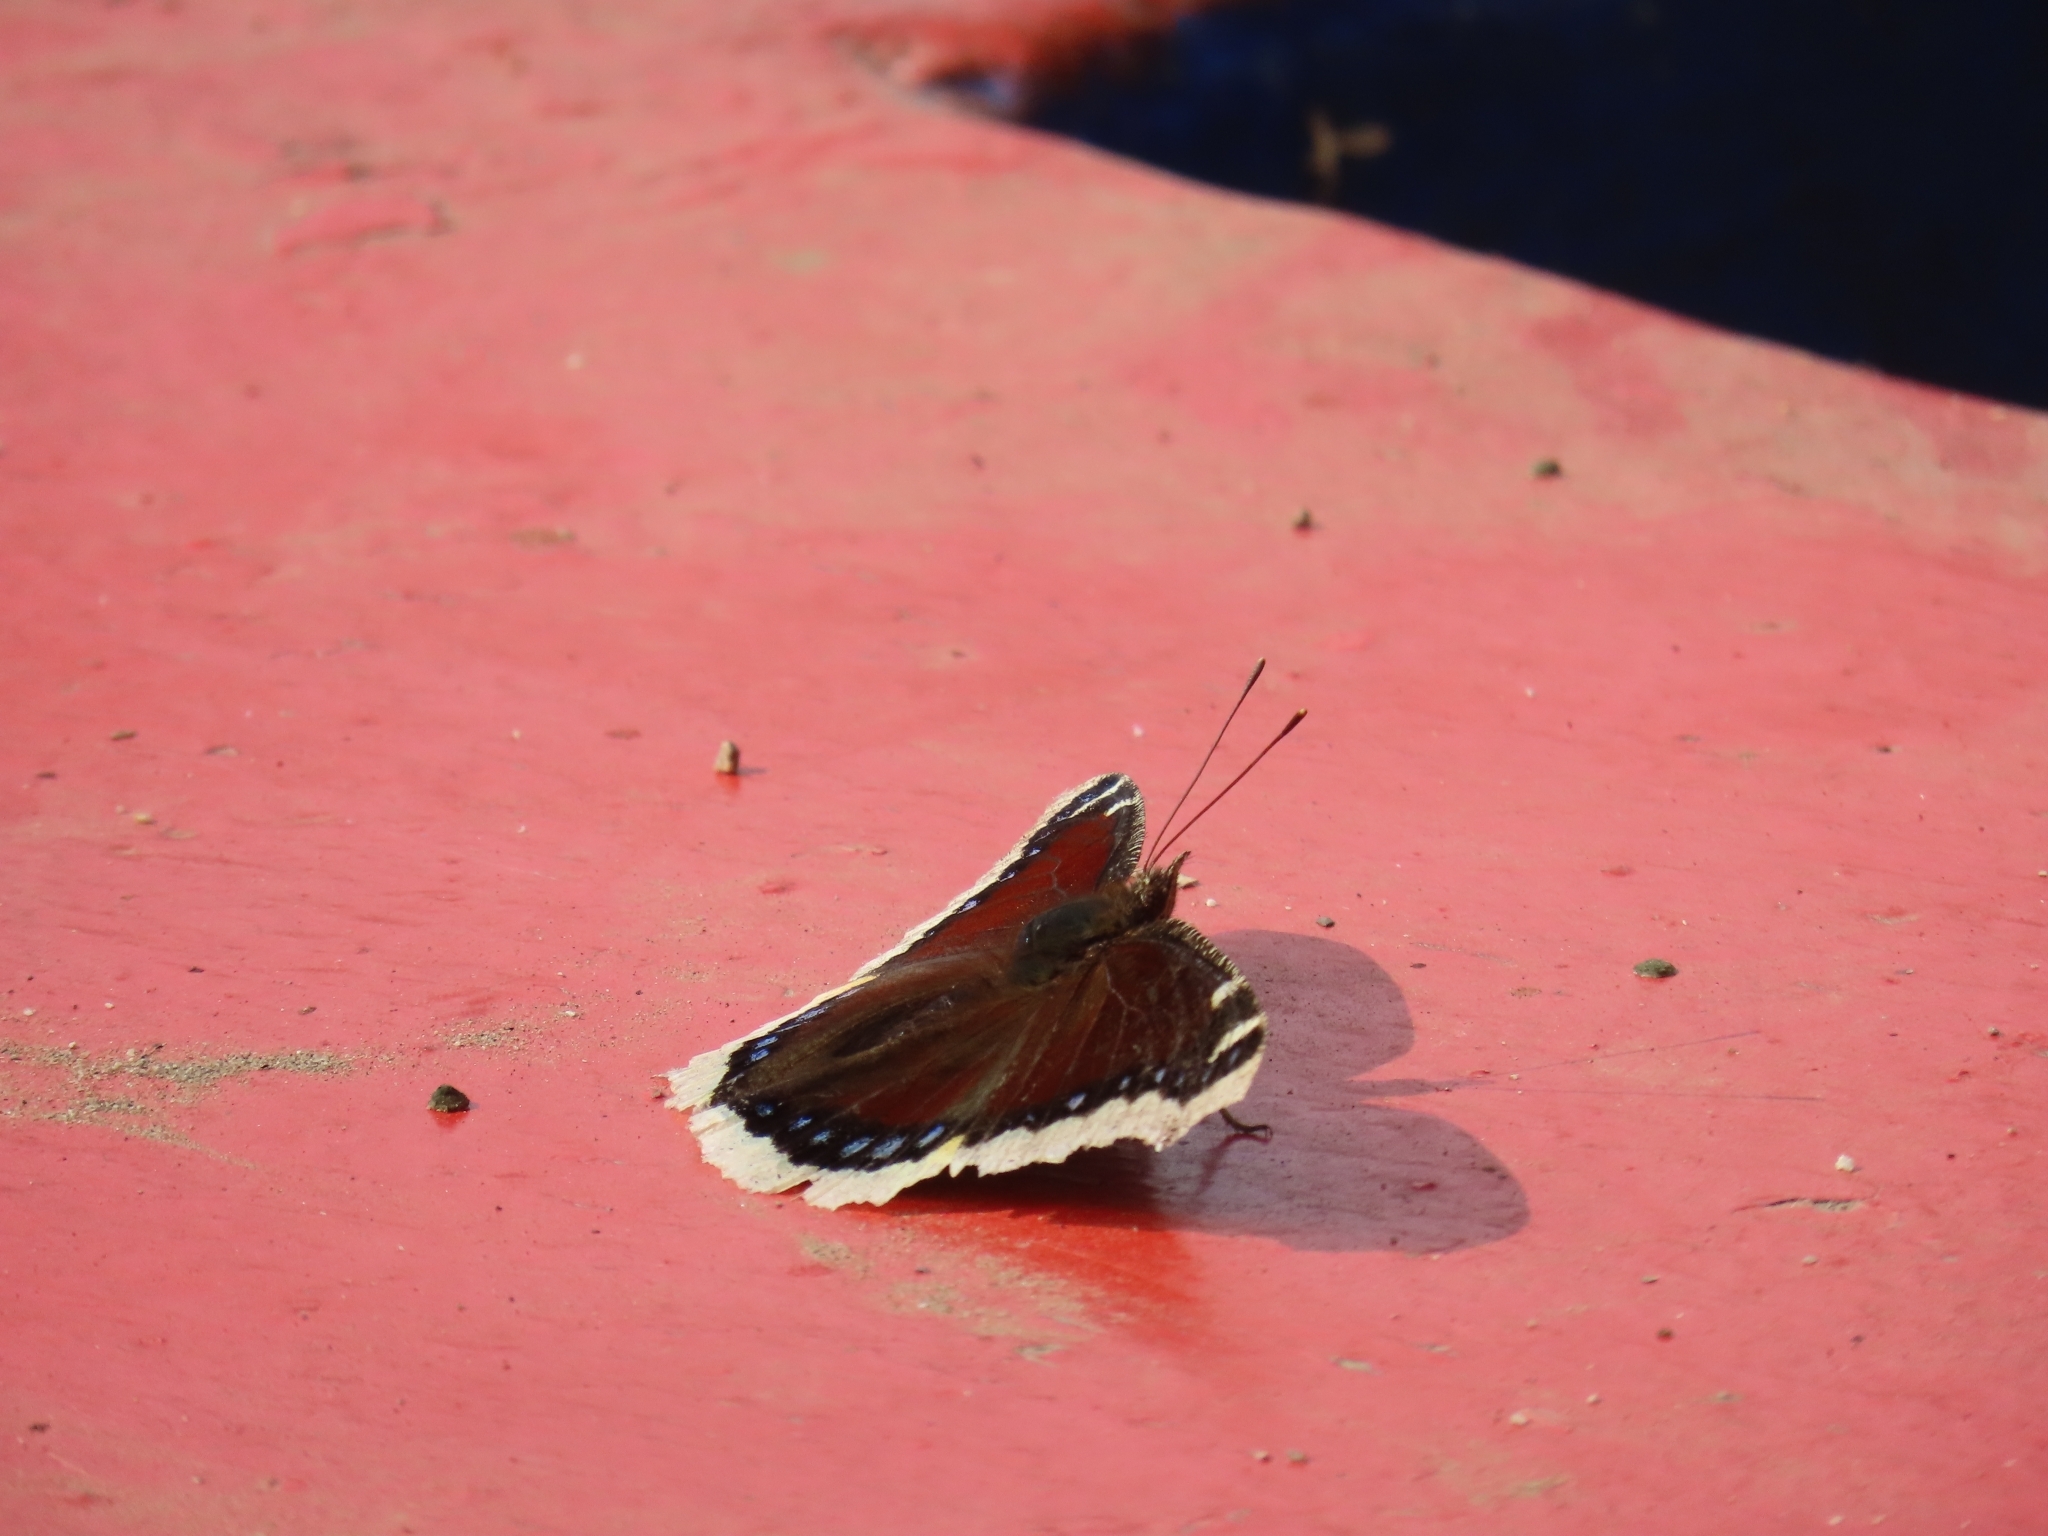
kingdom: Animalia
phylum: Arthropoda
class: Insecta
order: Lepidoptera
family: Nymphalidae
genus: Nymphalis
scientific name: Nymphalis antiopa
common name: Camberwell beauty
